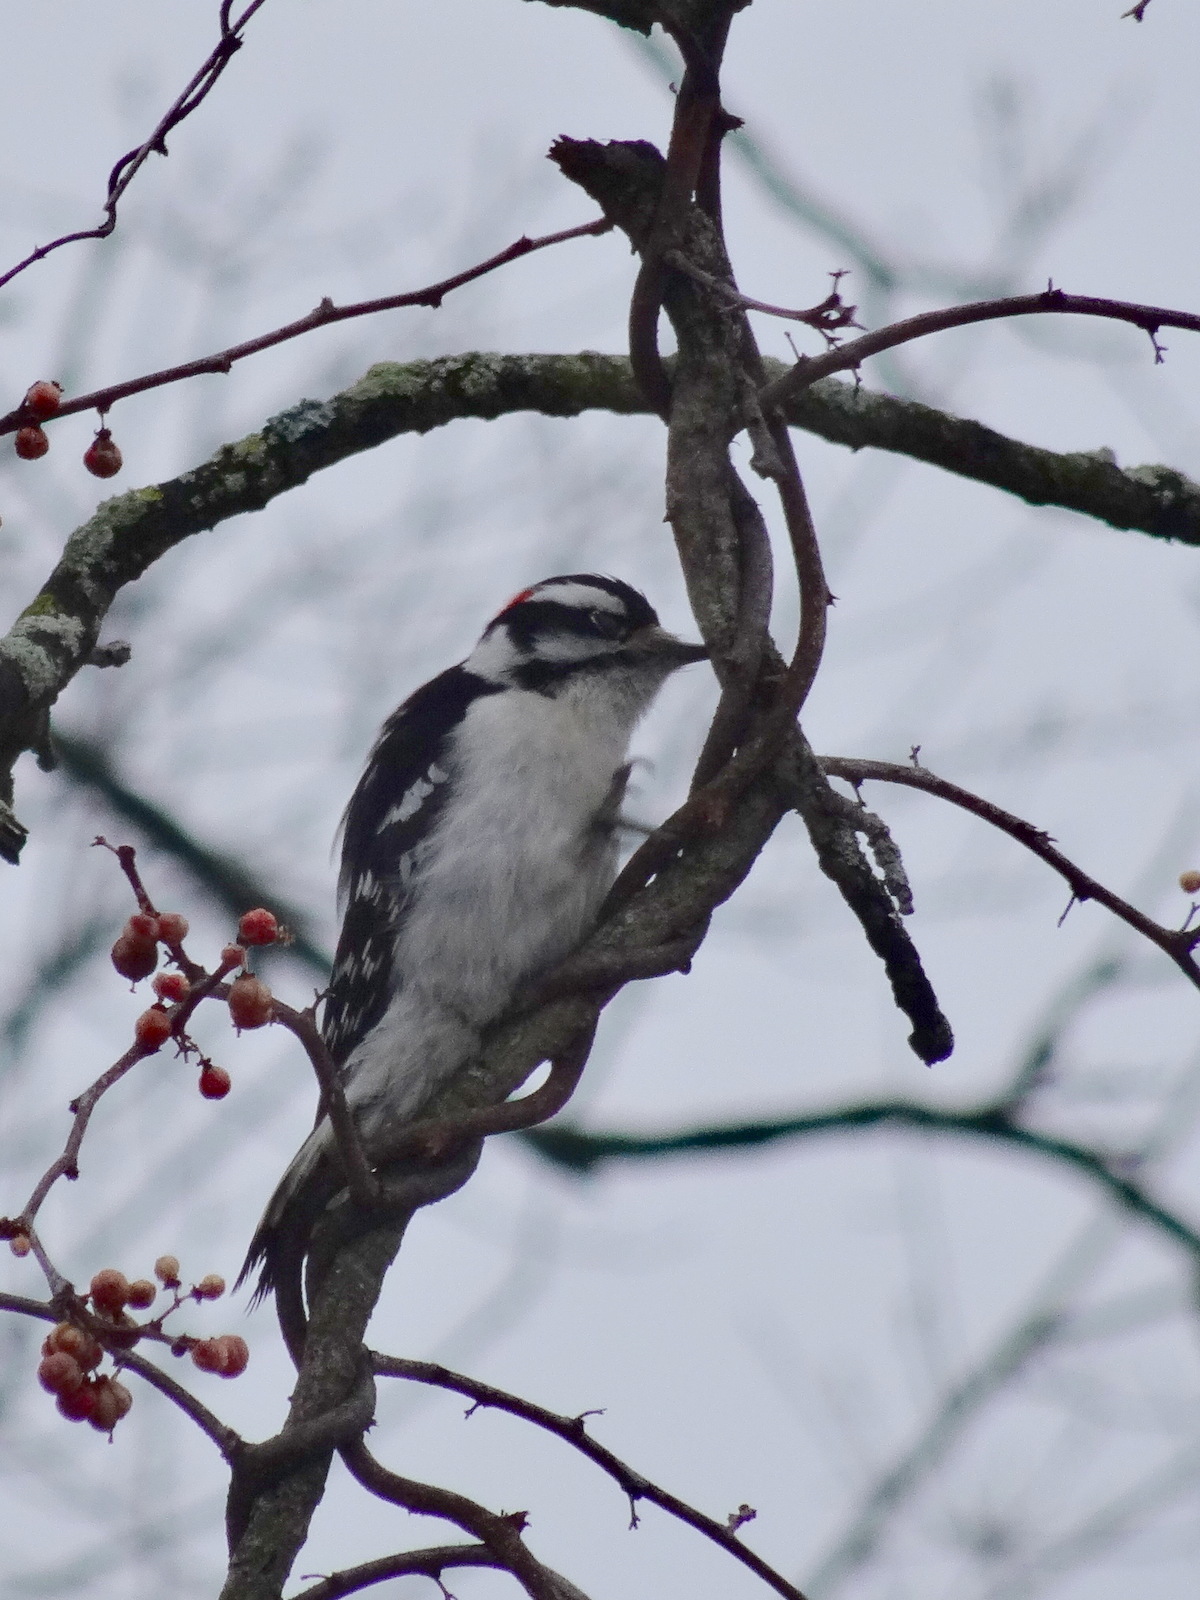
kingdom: Animalia
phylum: Chordata
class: Aves
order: Piciformes
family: Picidae
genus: Dryobates
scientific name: Dryobates pubescens
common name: Downy woodpecker
